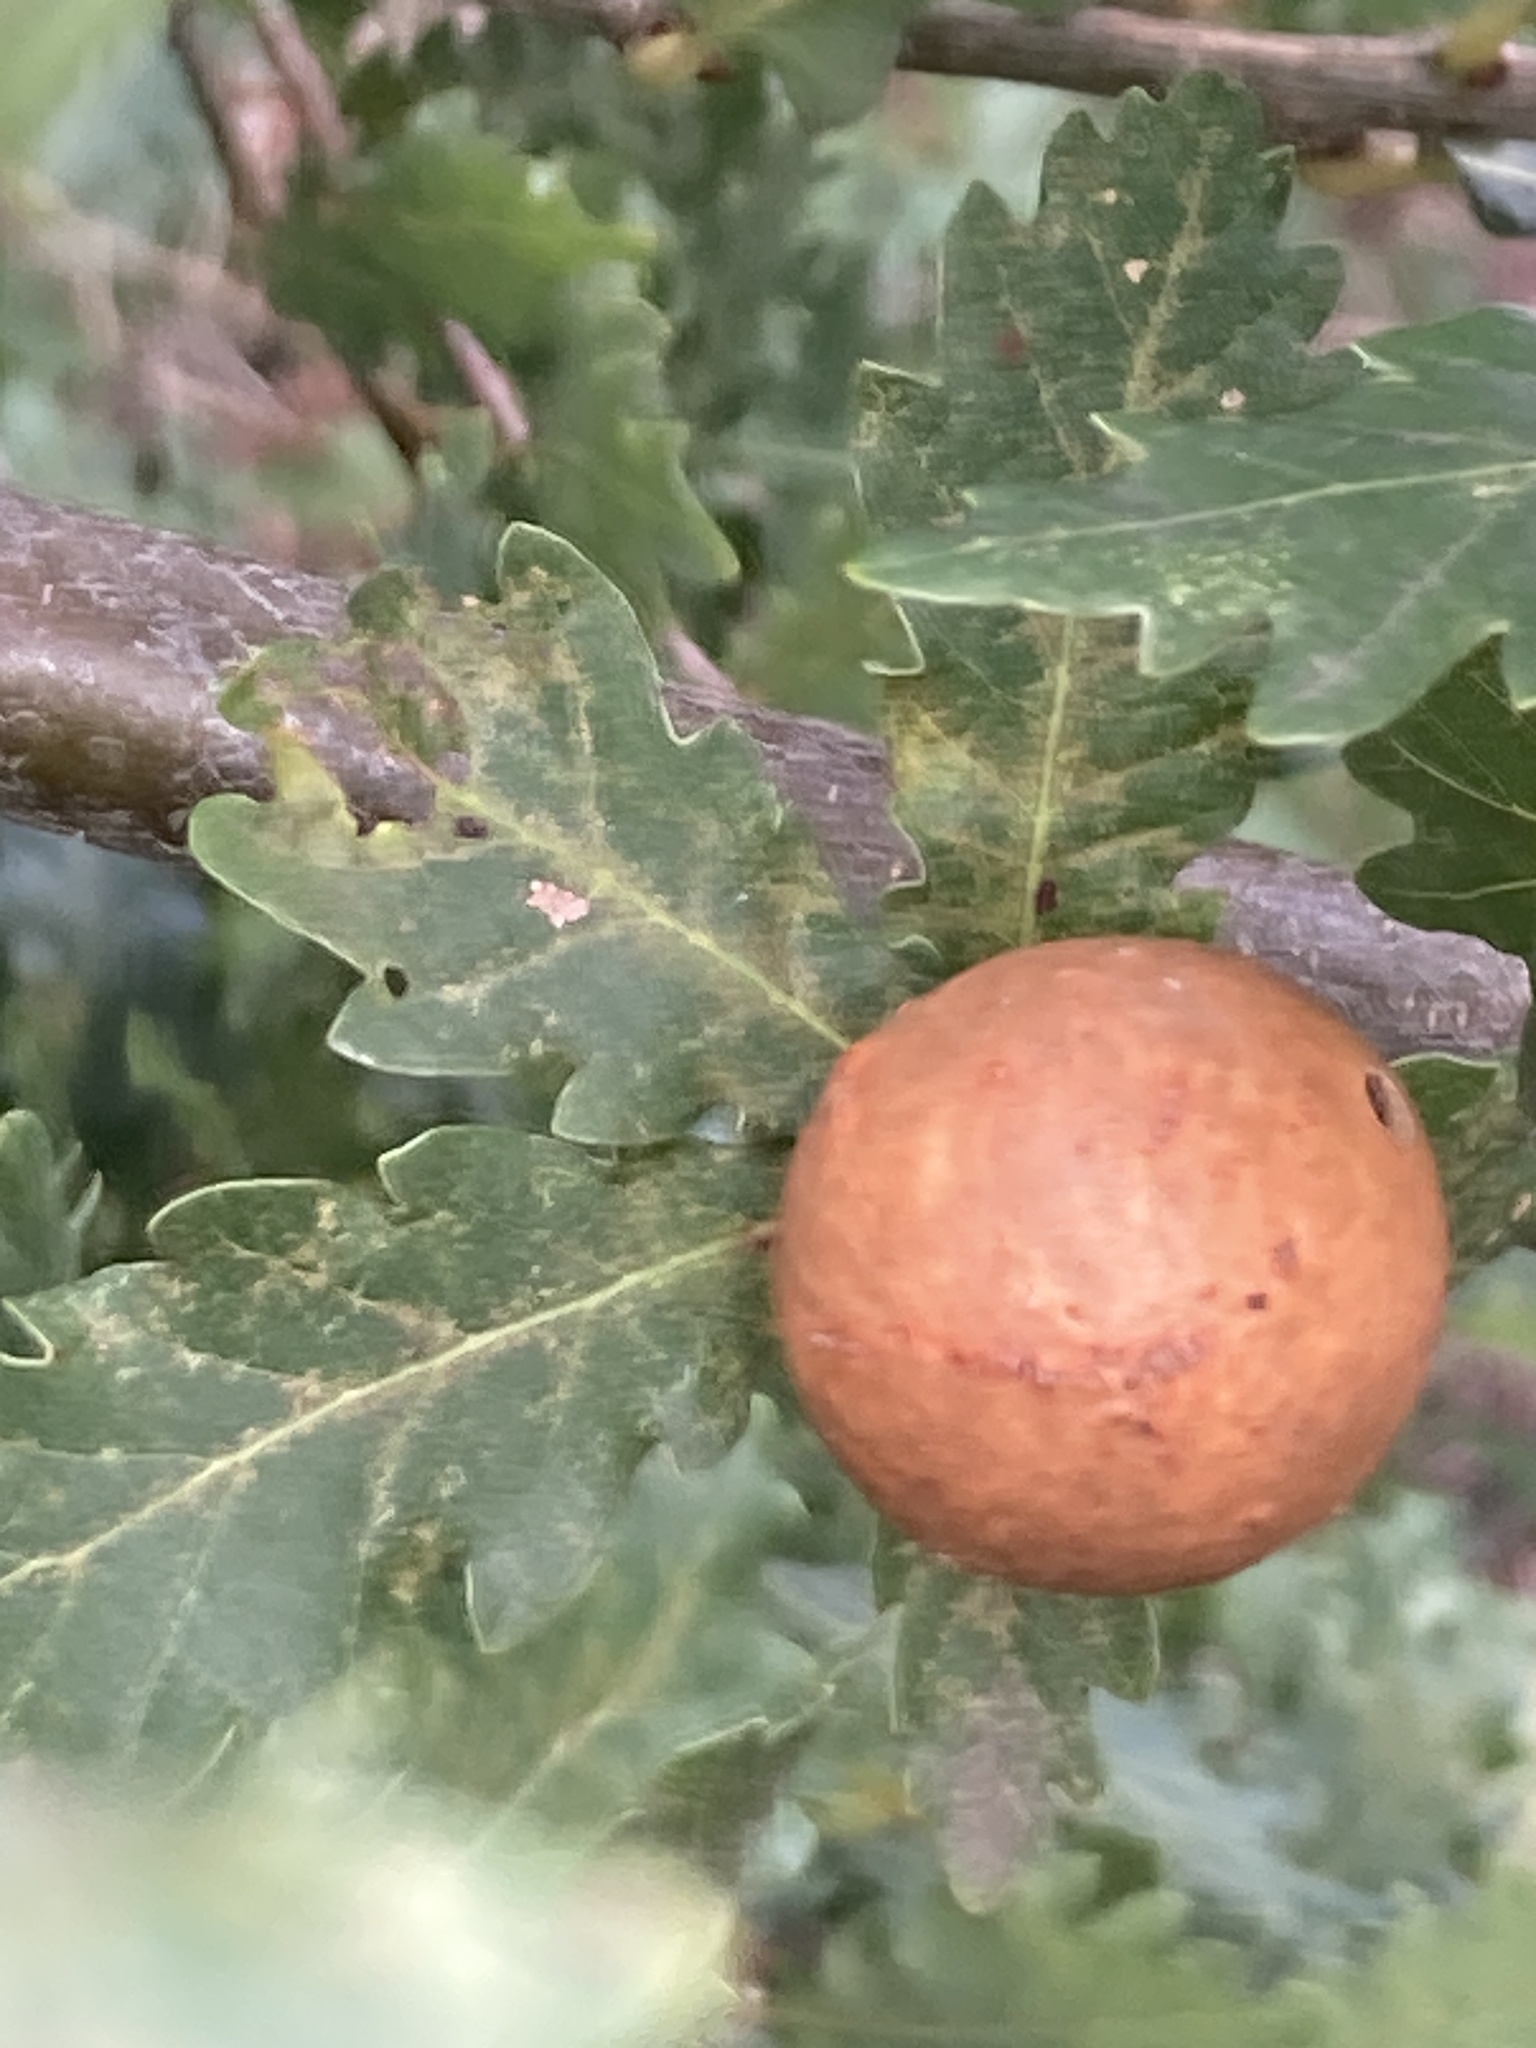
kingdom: Animalia
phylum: Arthropoda
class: Insecta
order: Hymenoptera
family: Cynipidae
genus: Andricus
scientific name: Andricus kollari
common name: Marble gall
